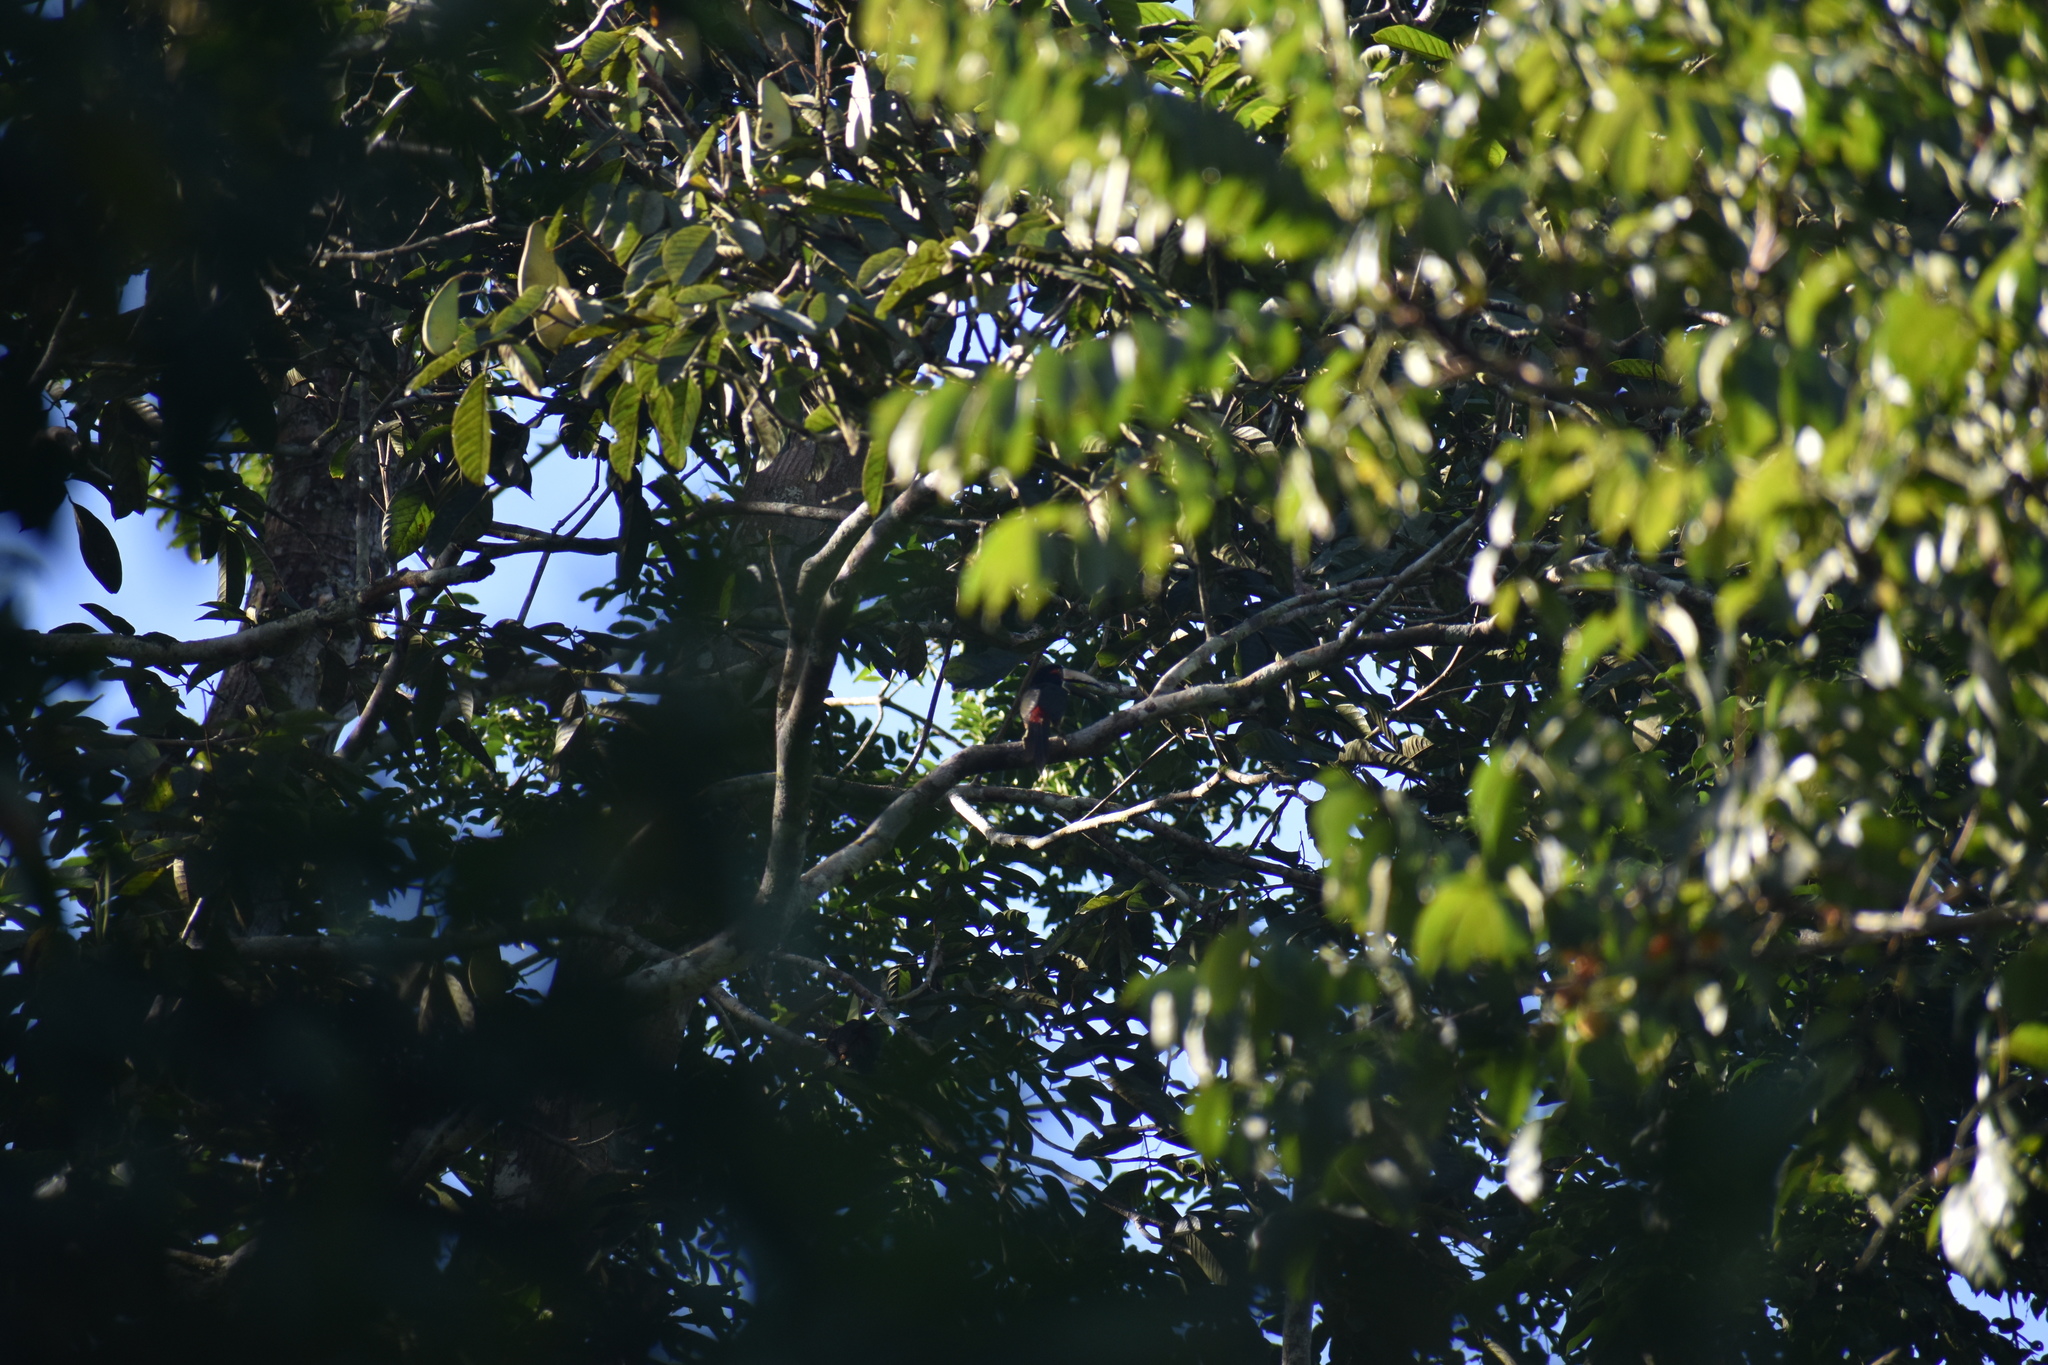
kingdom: Animalia
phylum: Chordata
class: Aves
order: Piciformes
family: Ramphastidae
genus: Pteroglossus
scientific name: Pteroglossus torquatus
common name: Collared aracari
